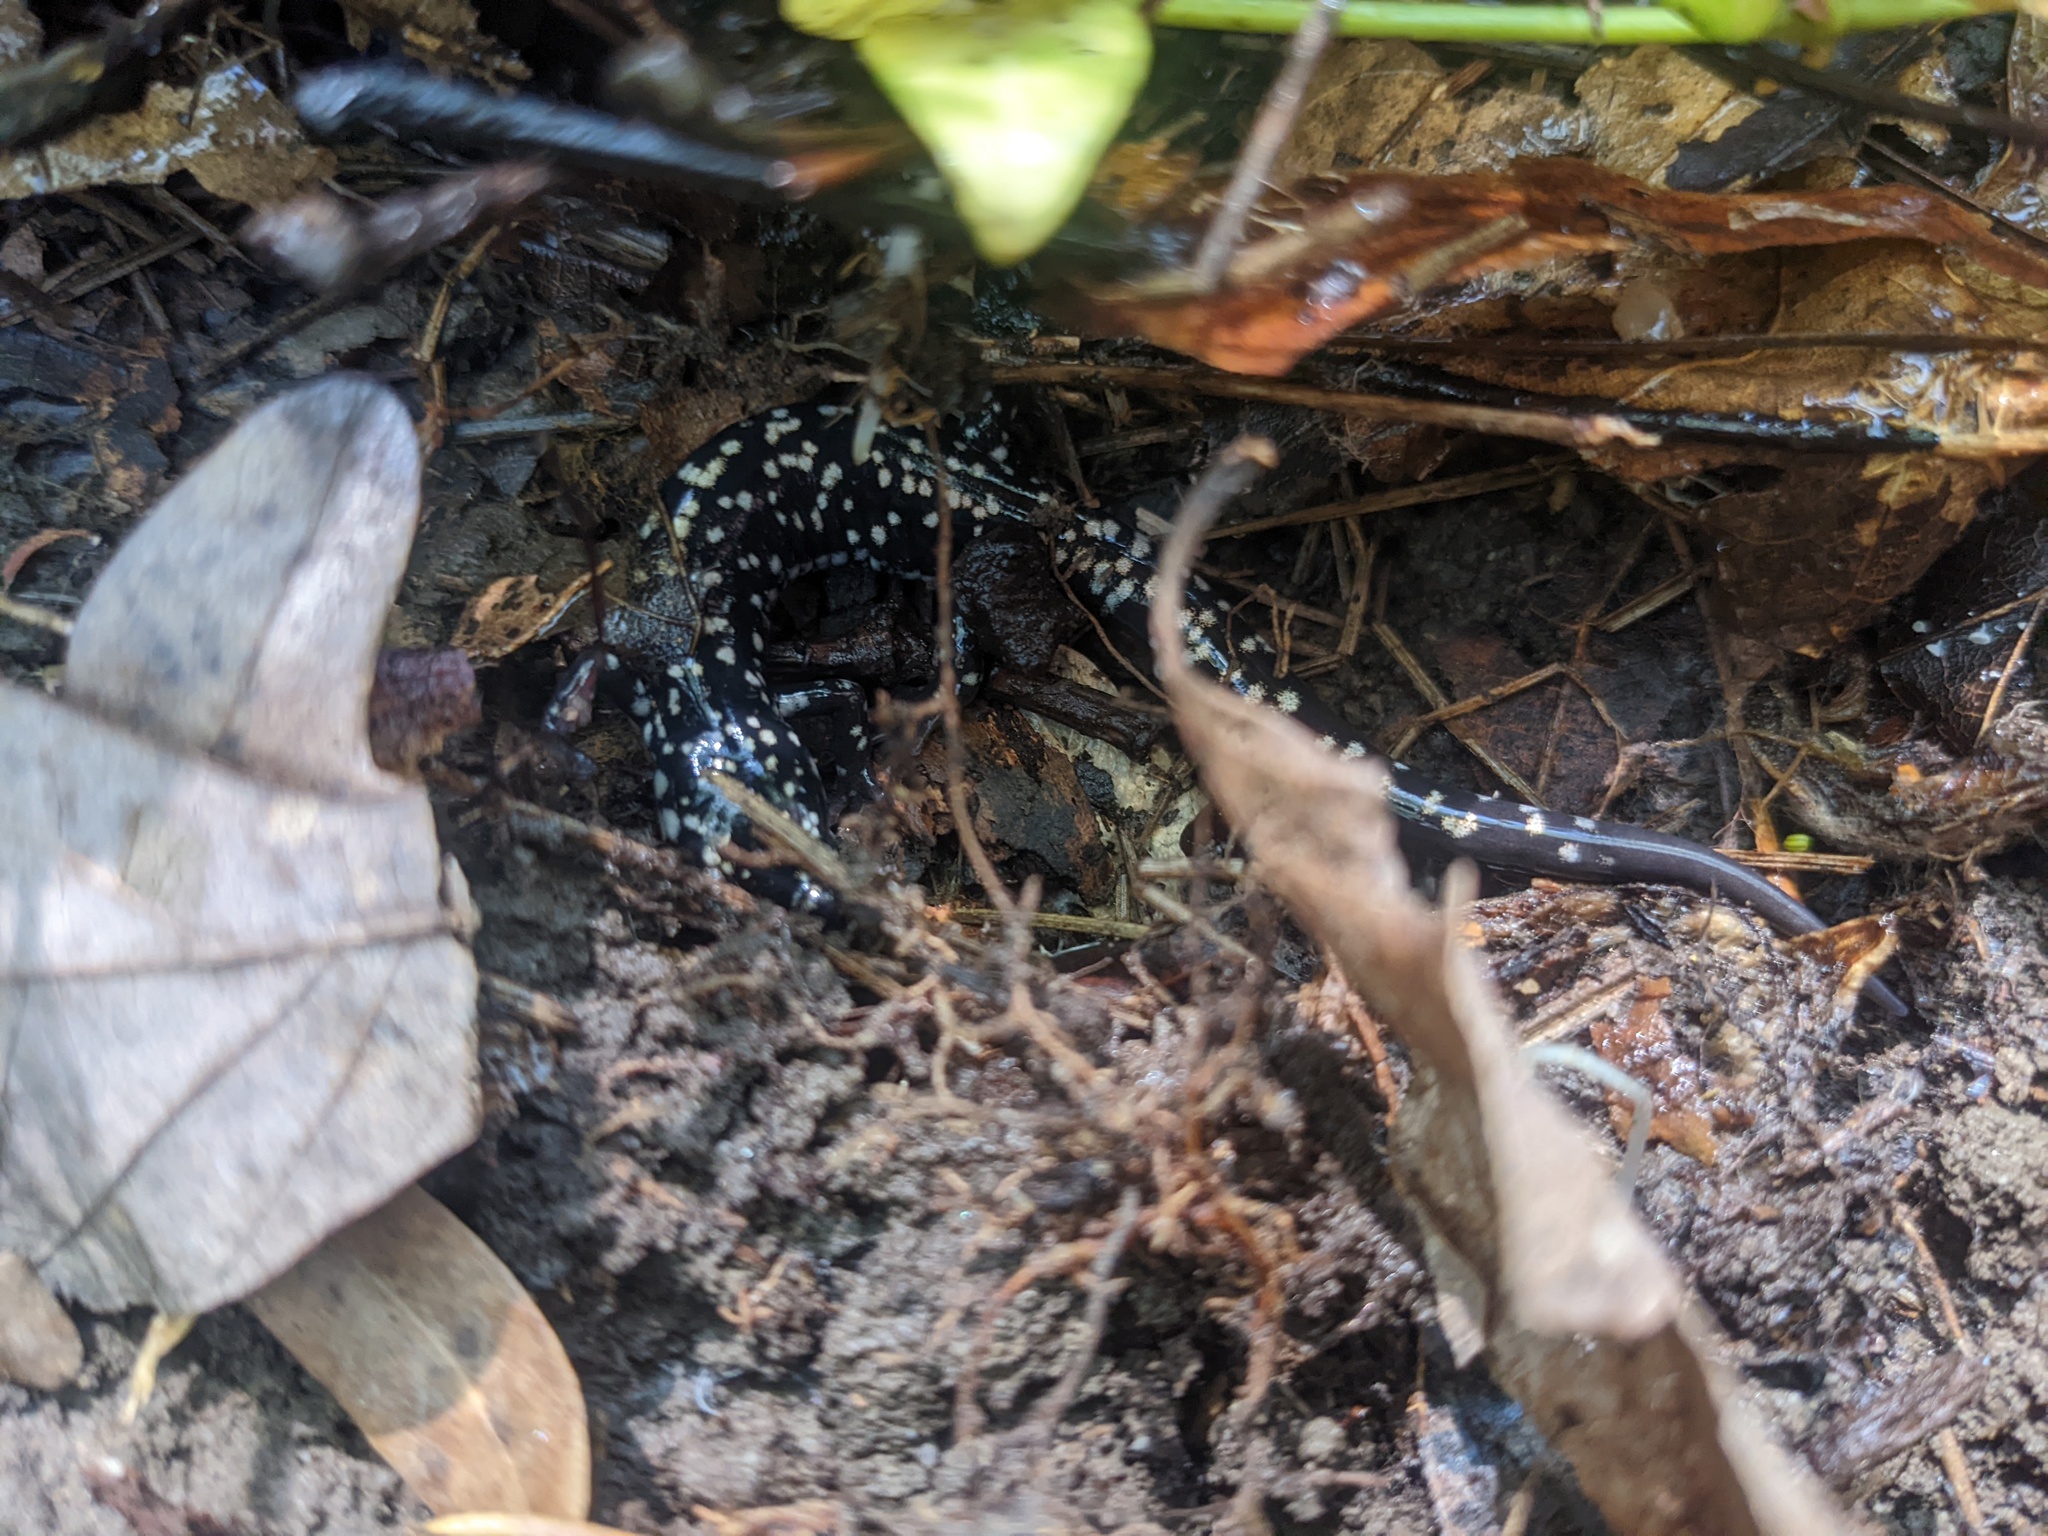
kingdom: Animalia
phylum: Chordata
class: Amphibia
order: Caudata
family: Plethodontidae
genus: Plethodon
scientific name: Plethodon glutinosus
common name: Northern slimy salamander
